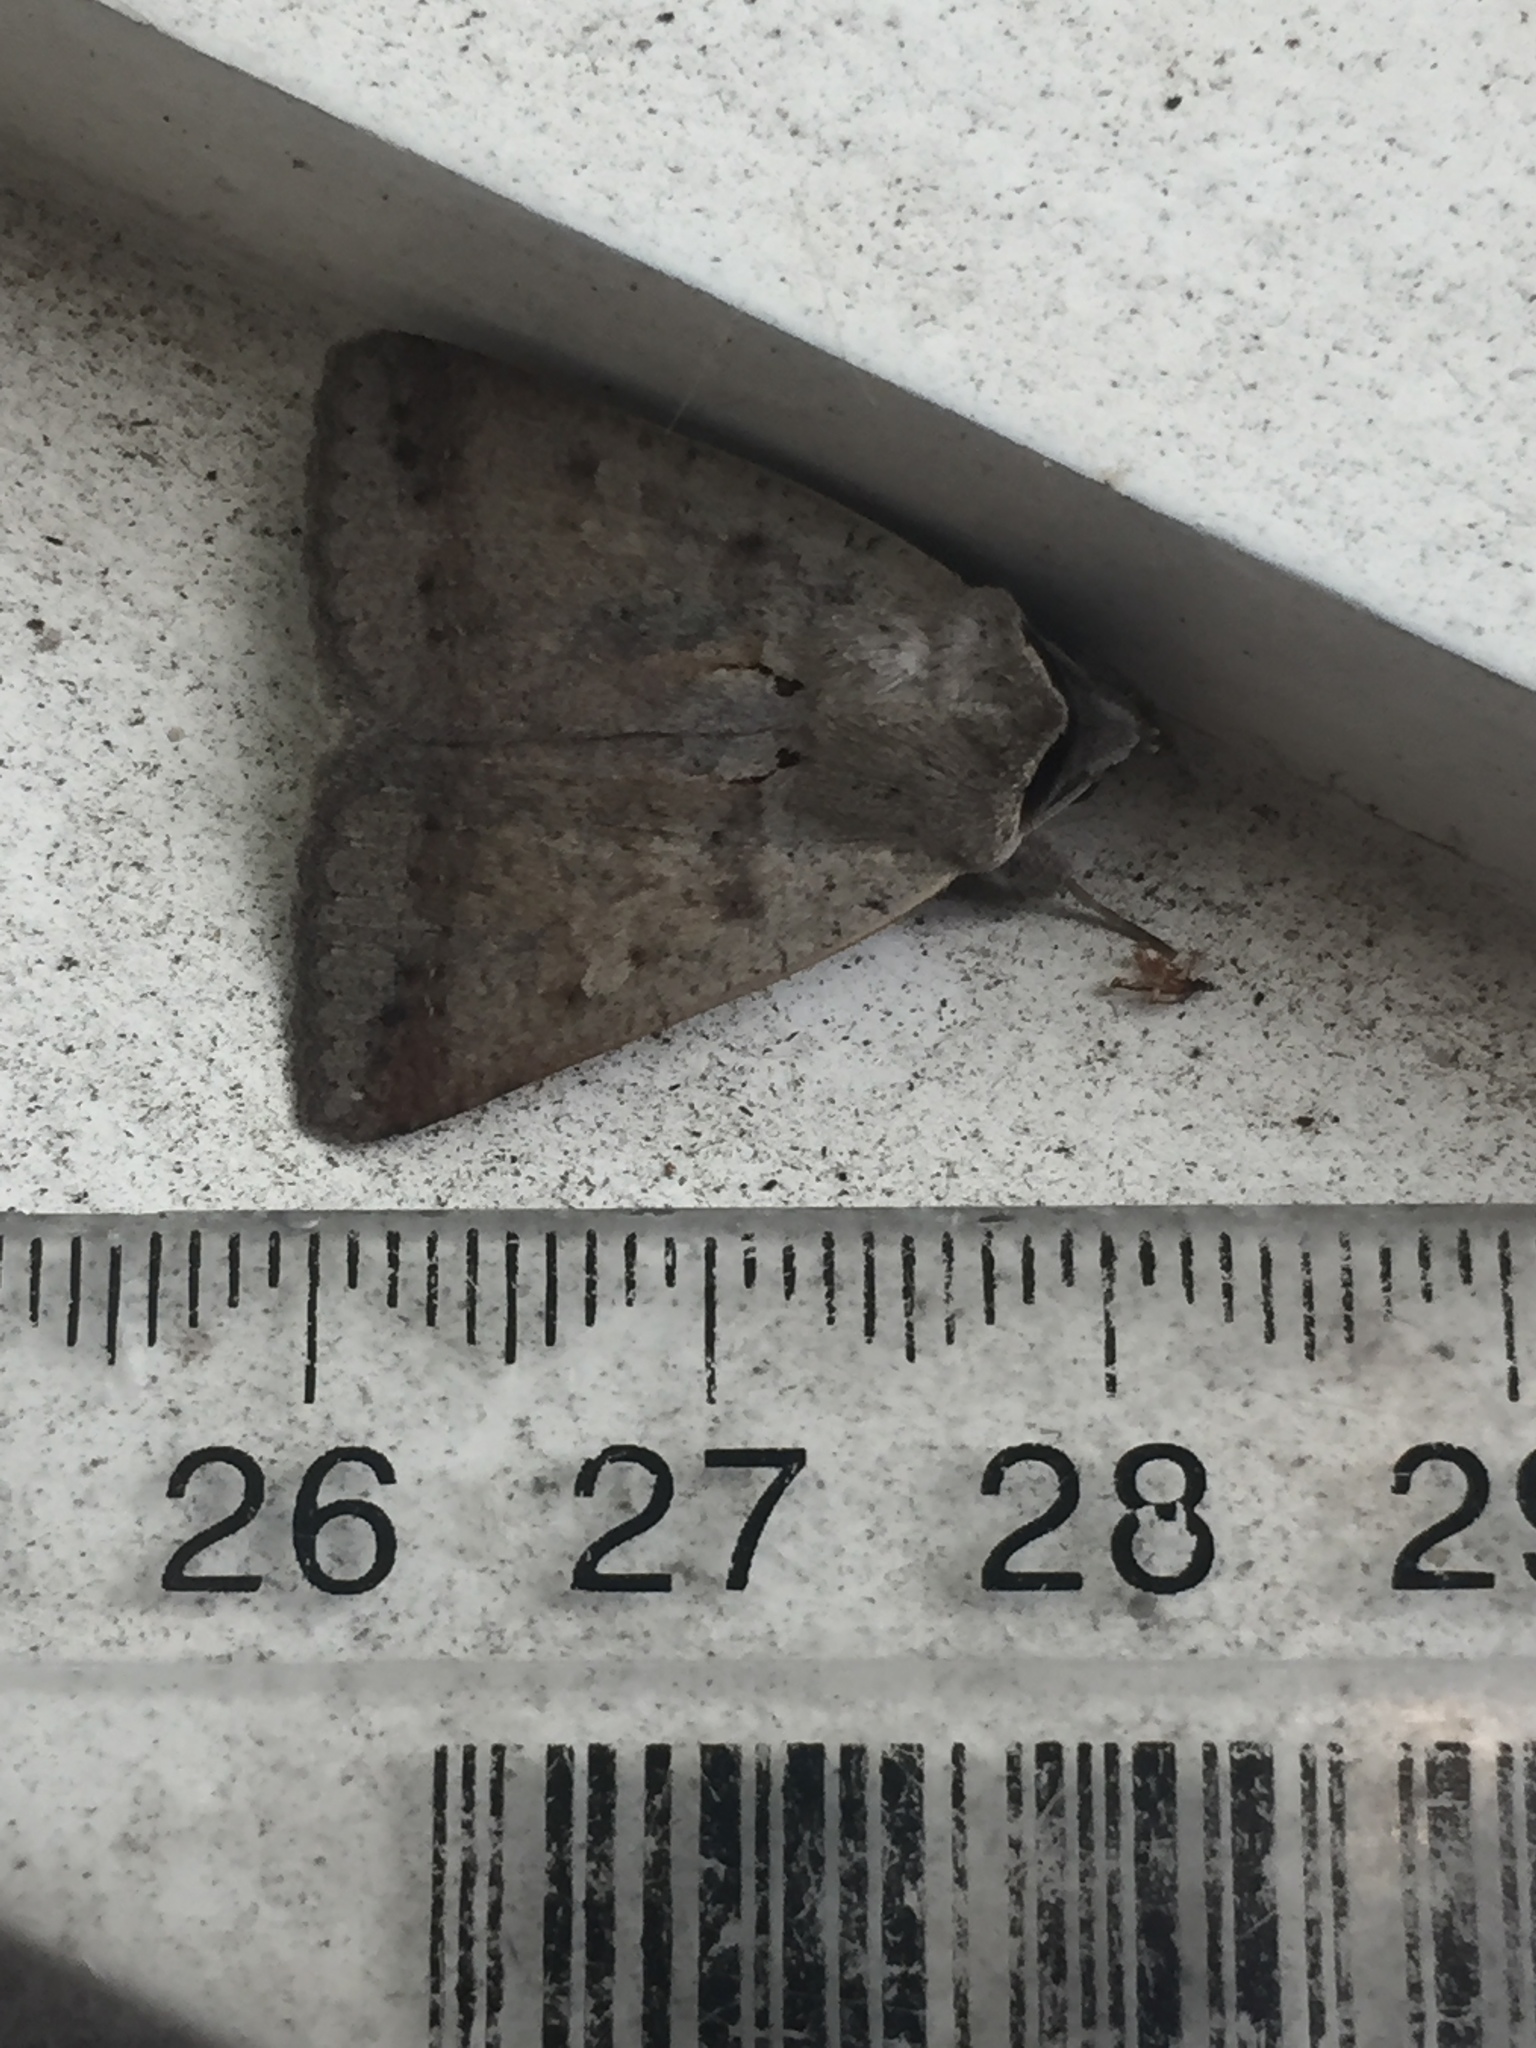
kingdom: Animalia
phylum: Arthropoda
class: Insecta
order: Lepidoptera
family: Erebidae
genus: Pantydia
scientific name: Pantydia sparsa
